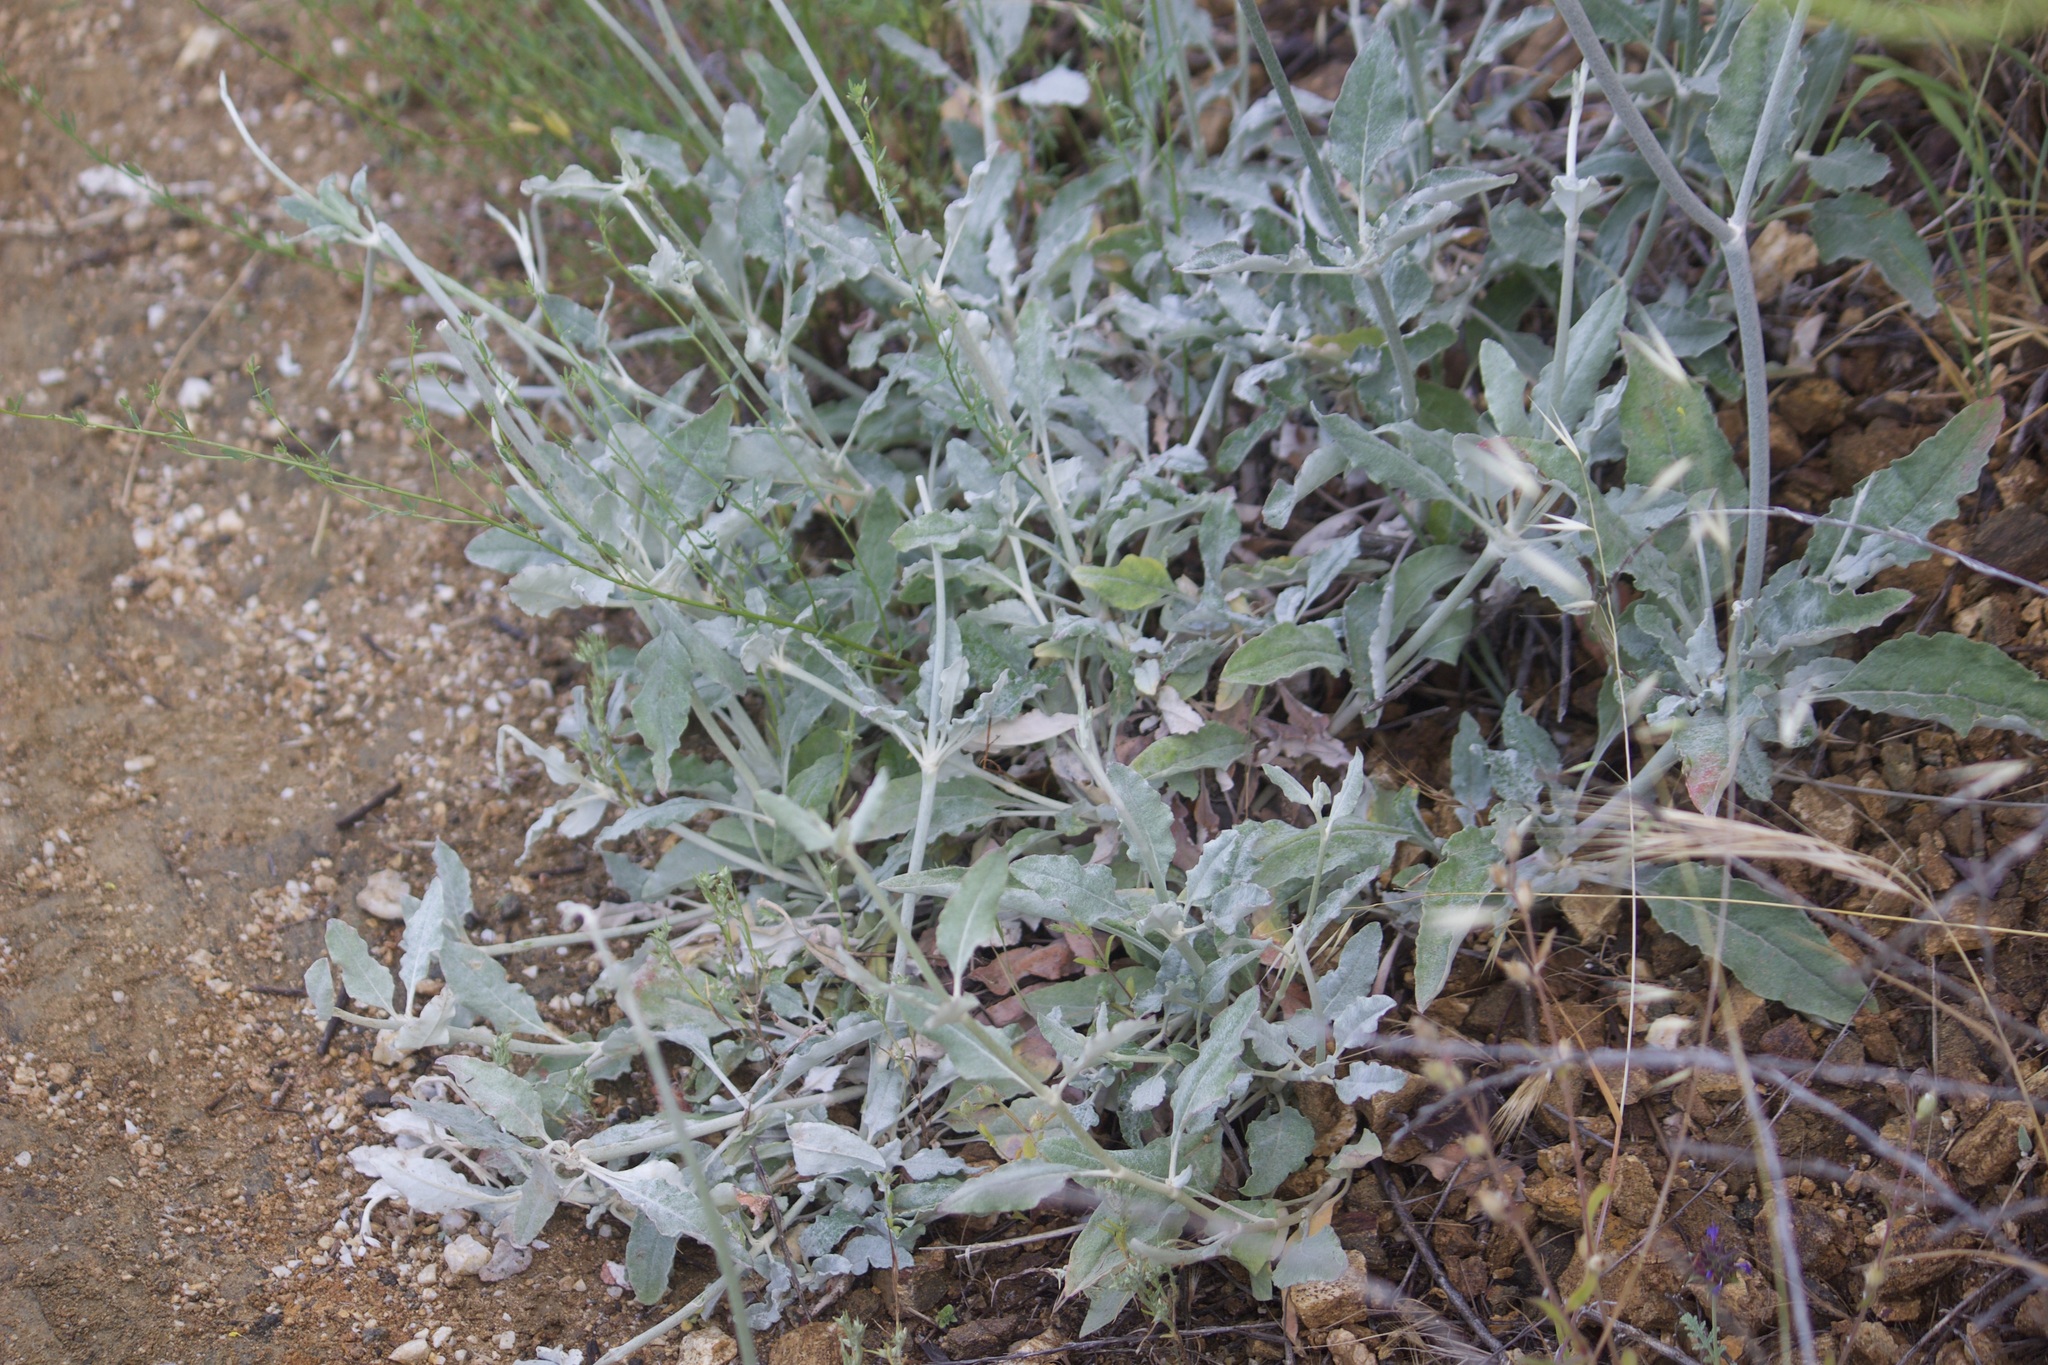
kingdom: Plantae
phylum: Tracheophyta
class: Magnoliopsida
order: Caryophyllales
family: Polygonaceae
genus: Eriogonum
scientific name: Eriogonum elongatum
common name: Long-stem wild buckwheat
